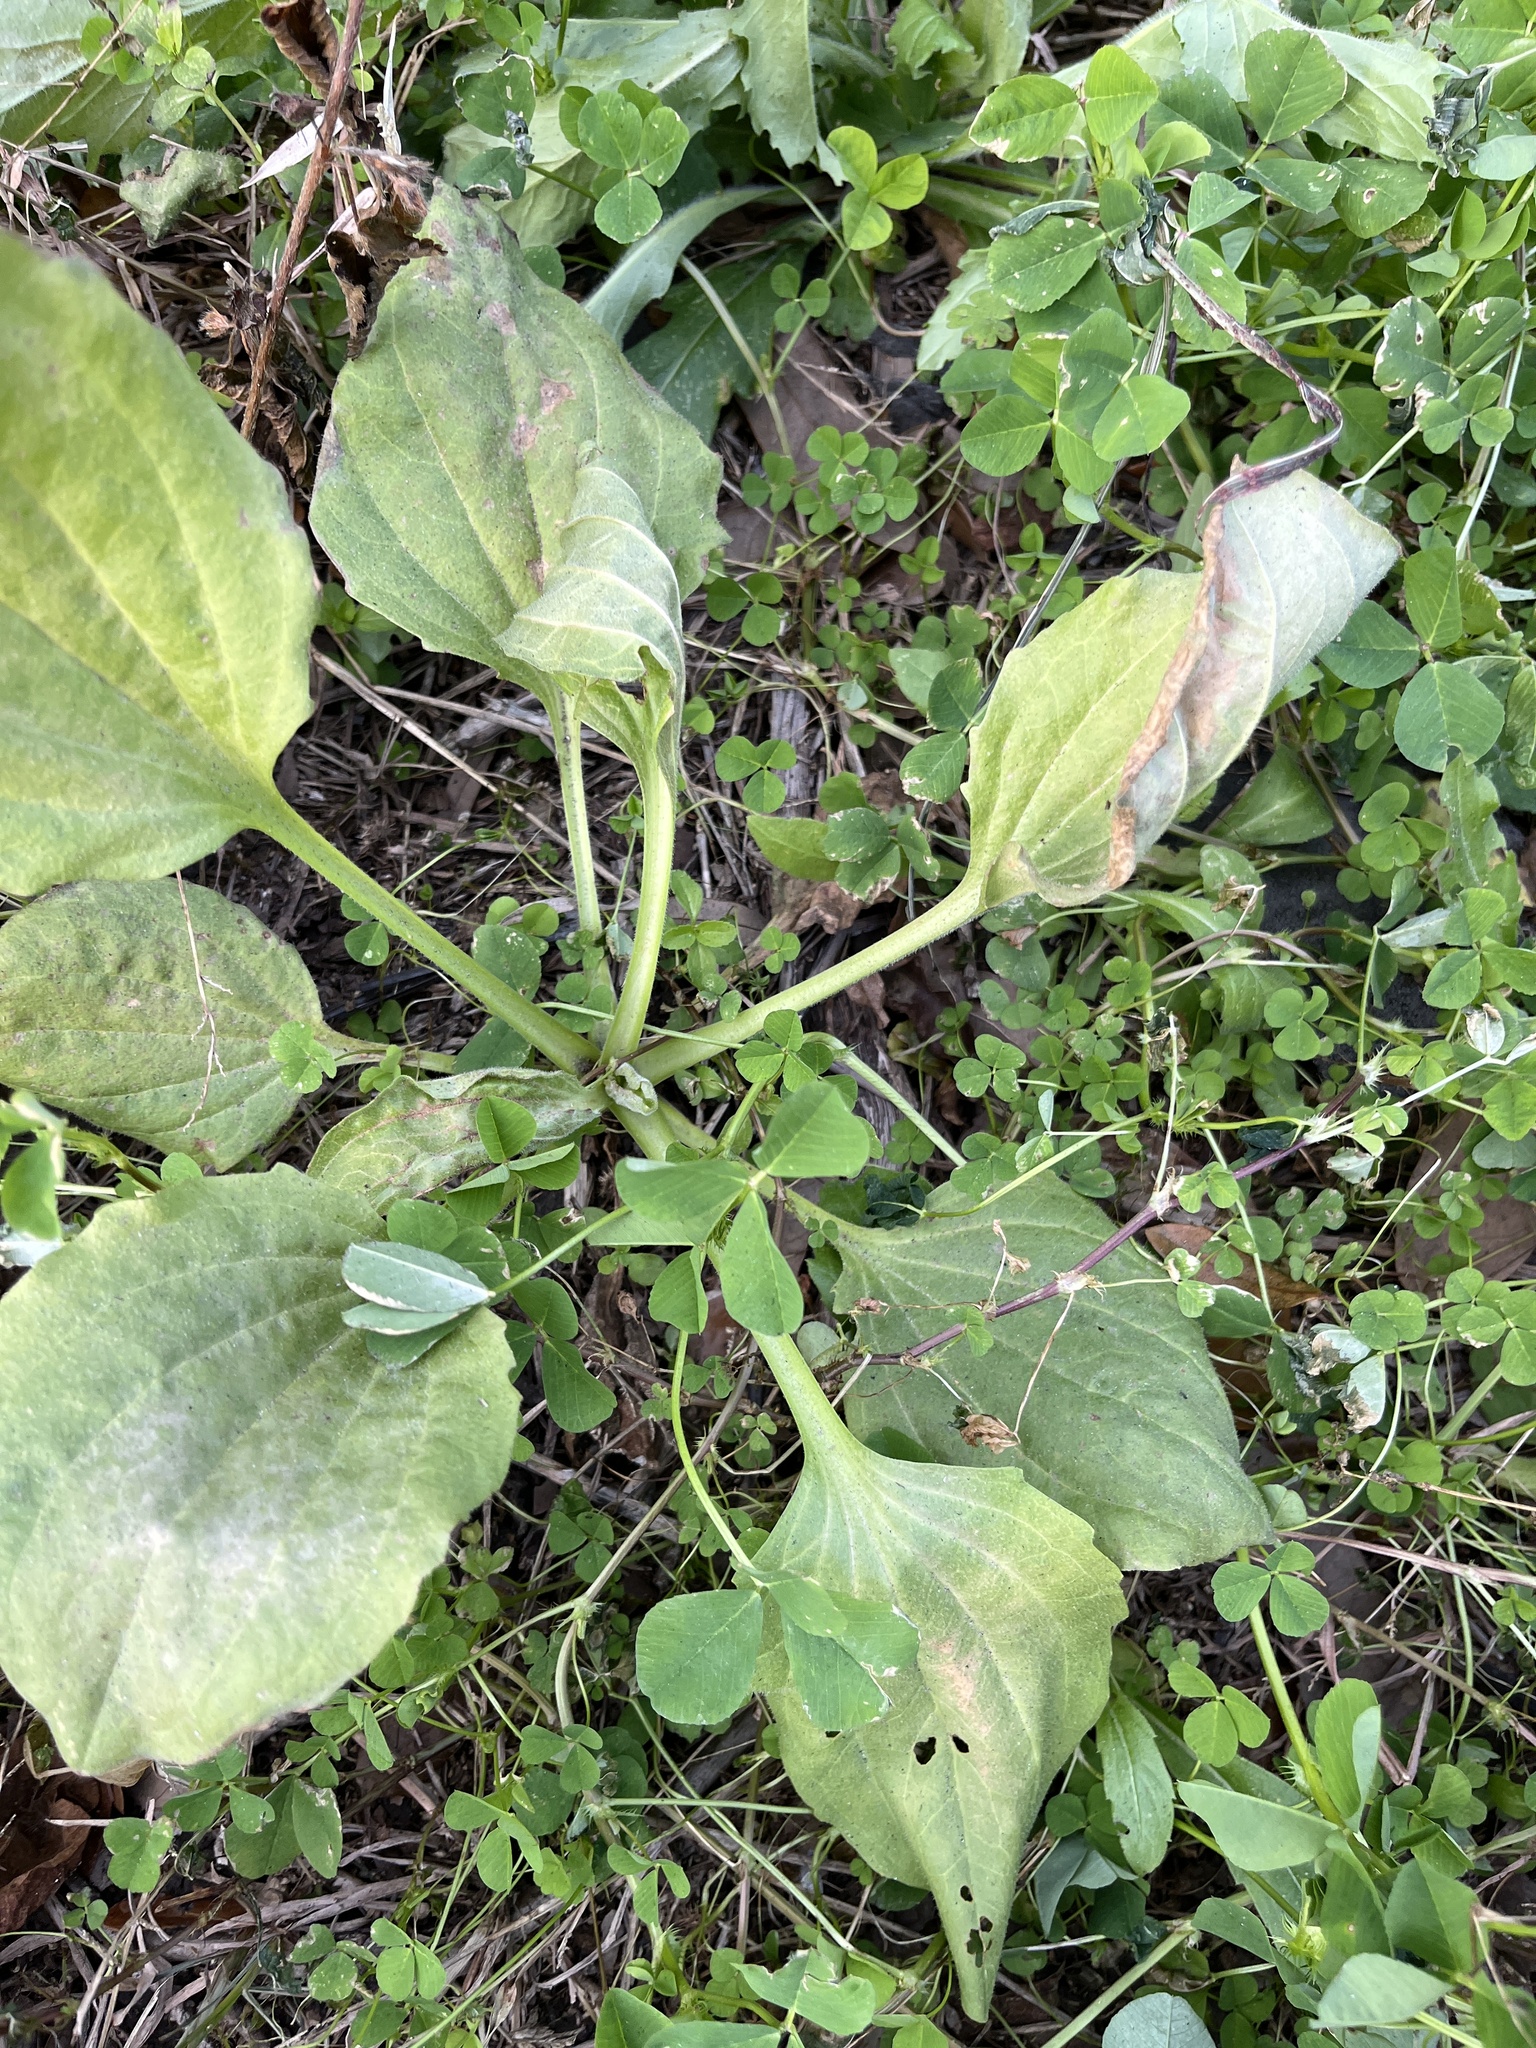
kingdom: Plantae
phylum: Tracheophyta
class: Magnoliopsida
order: Lamiales
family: Plantaginaceae
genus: Plantago
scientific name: Plantago major
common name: Common plantain
